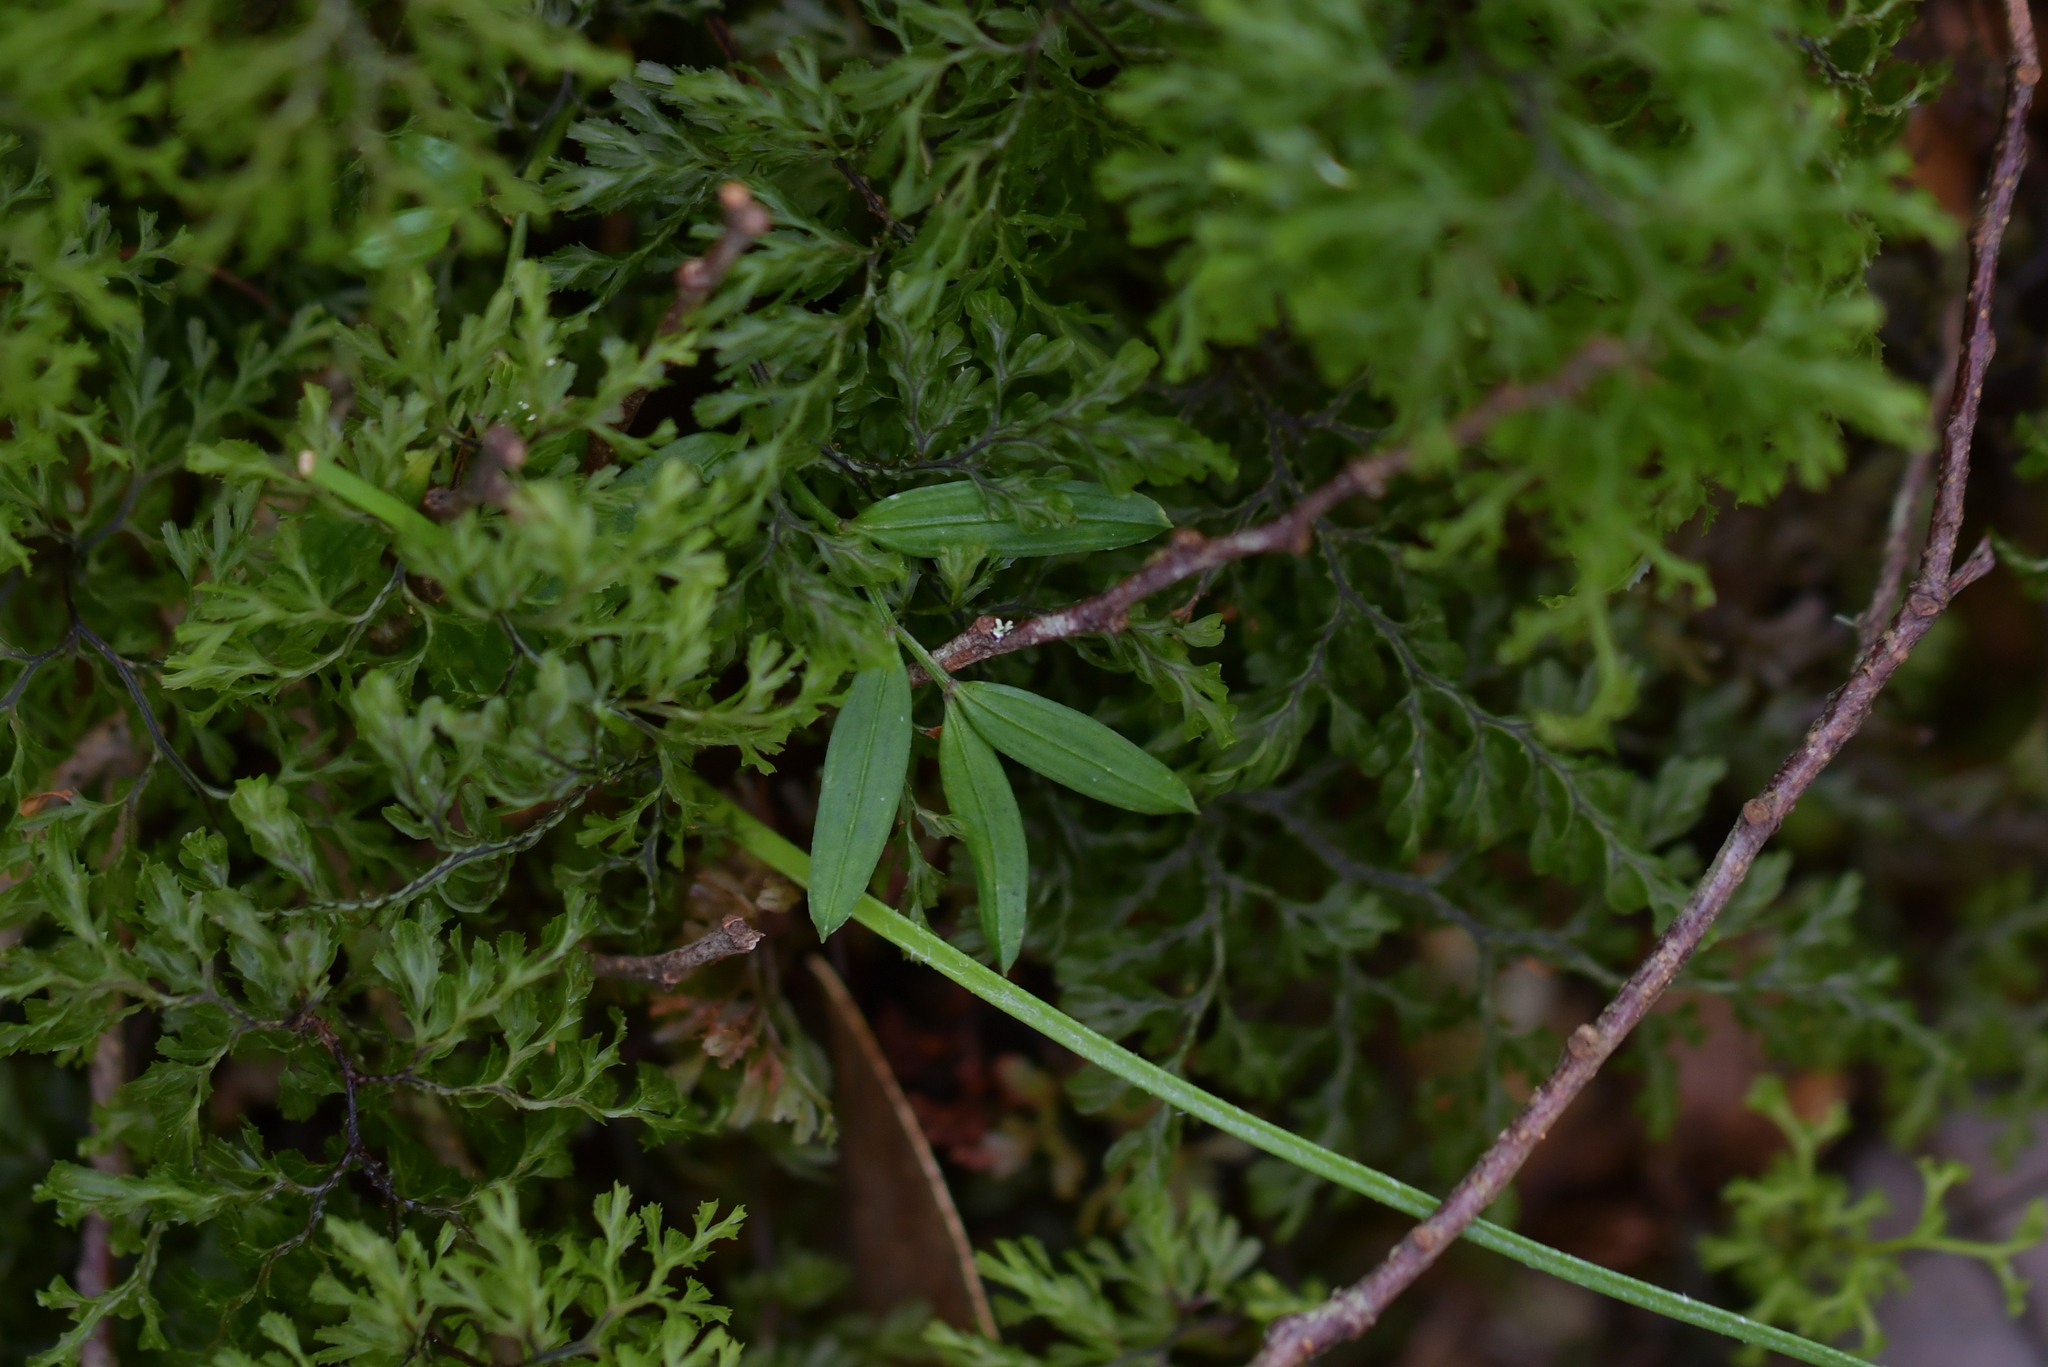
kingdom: Plantae
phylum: Tracheophyta
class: Liliopsida
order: Liliales
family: Alstroemeriaceae
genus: Luzuriaga
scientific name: Luzuriaga parviflora
